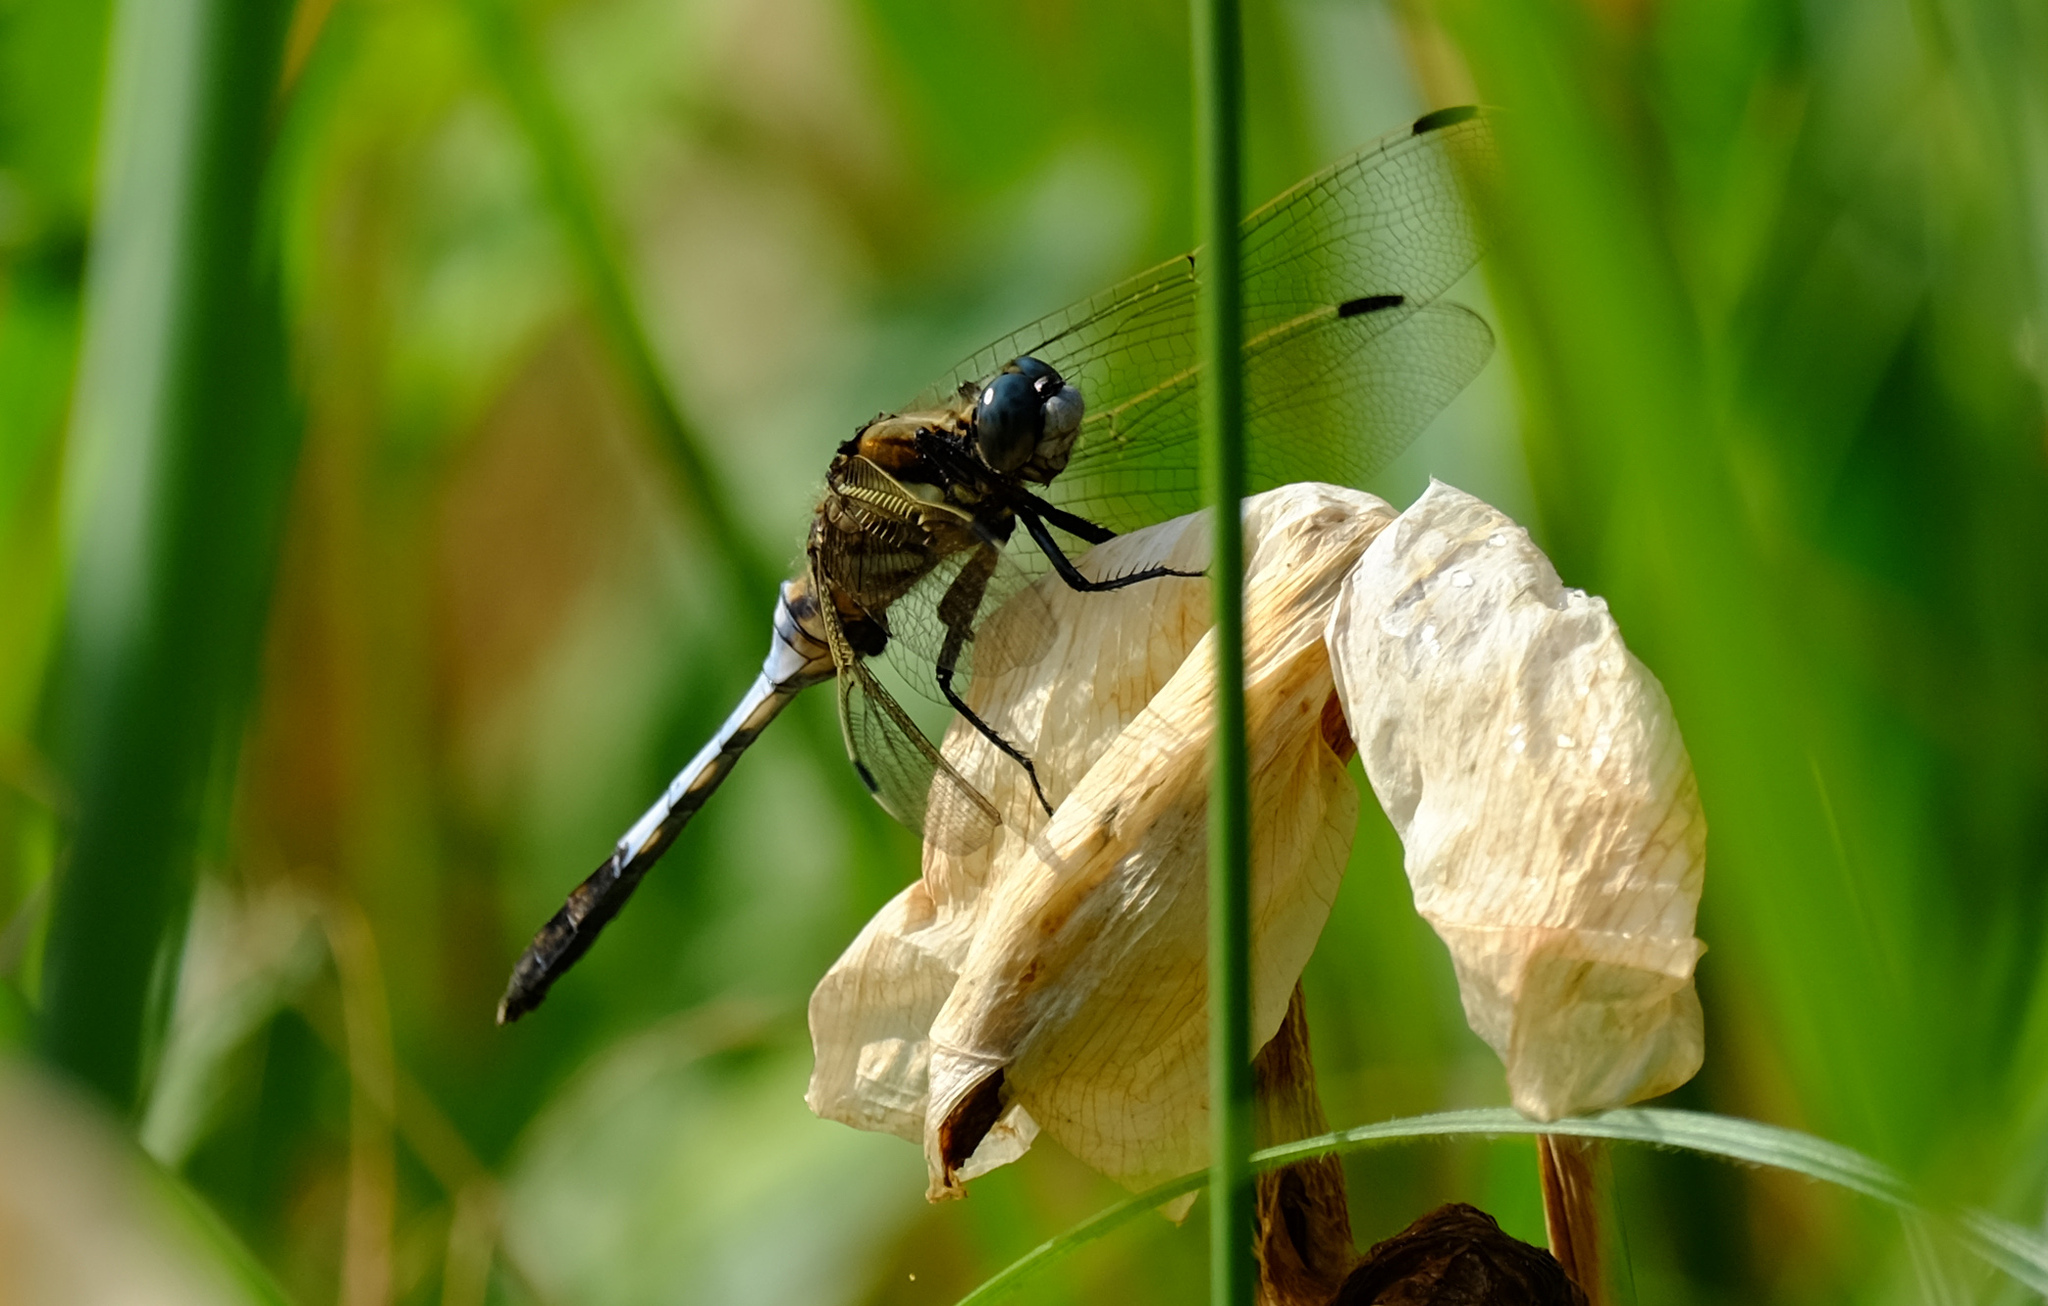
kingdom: Animalia
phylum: Arthropoda
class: Insecta
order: Odonata
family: Libellulidae
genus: Orthetrum
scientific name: Orthetrum albistylum
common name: White-tailed skimmer
